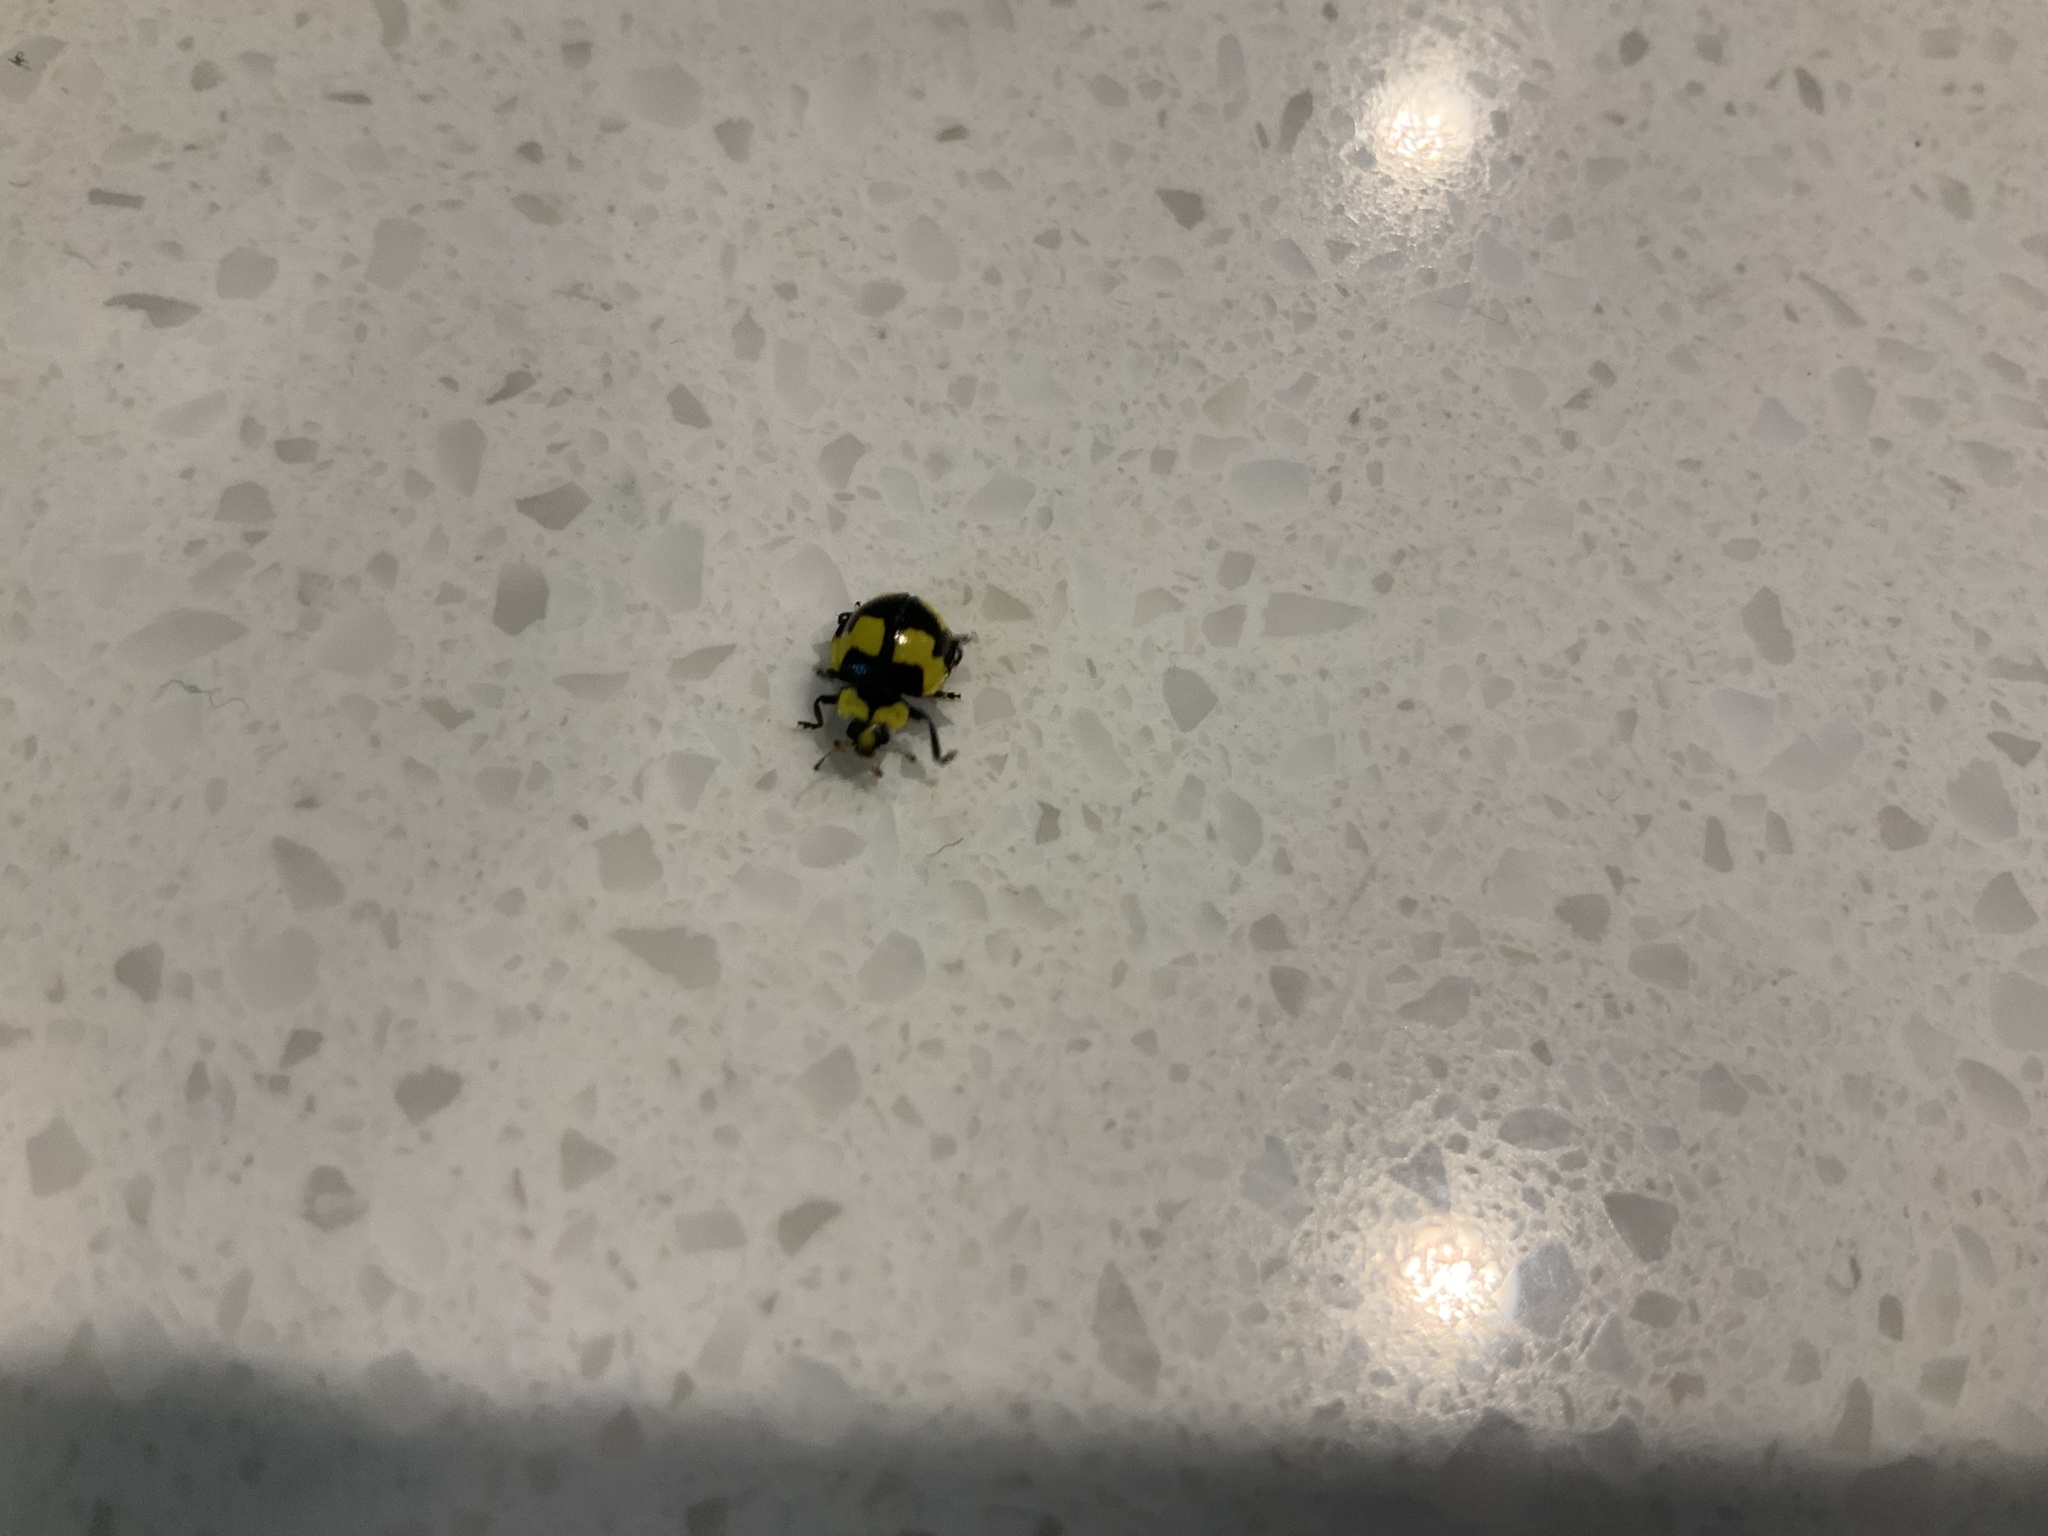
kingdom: Animalia
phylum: Arthropoda
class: Insecta
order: Coleoptera
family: Coccinellidae
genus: Illeis
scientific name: Illeis galbula
